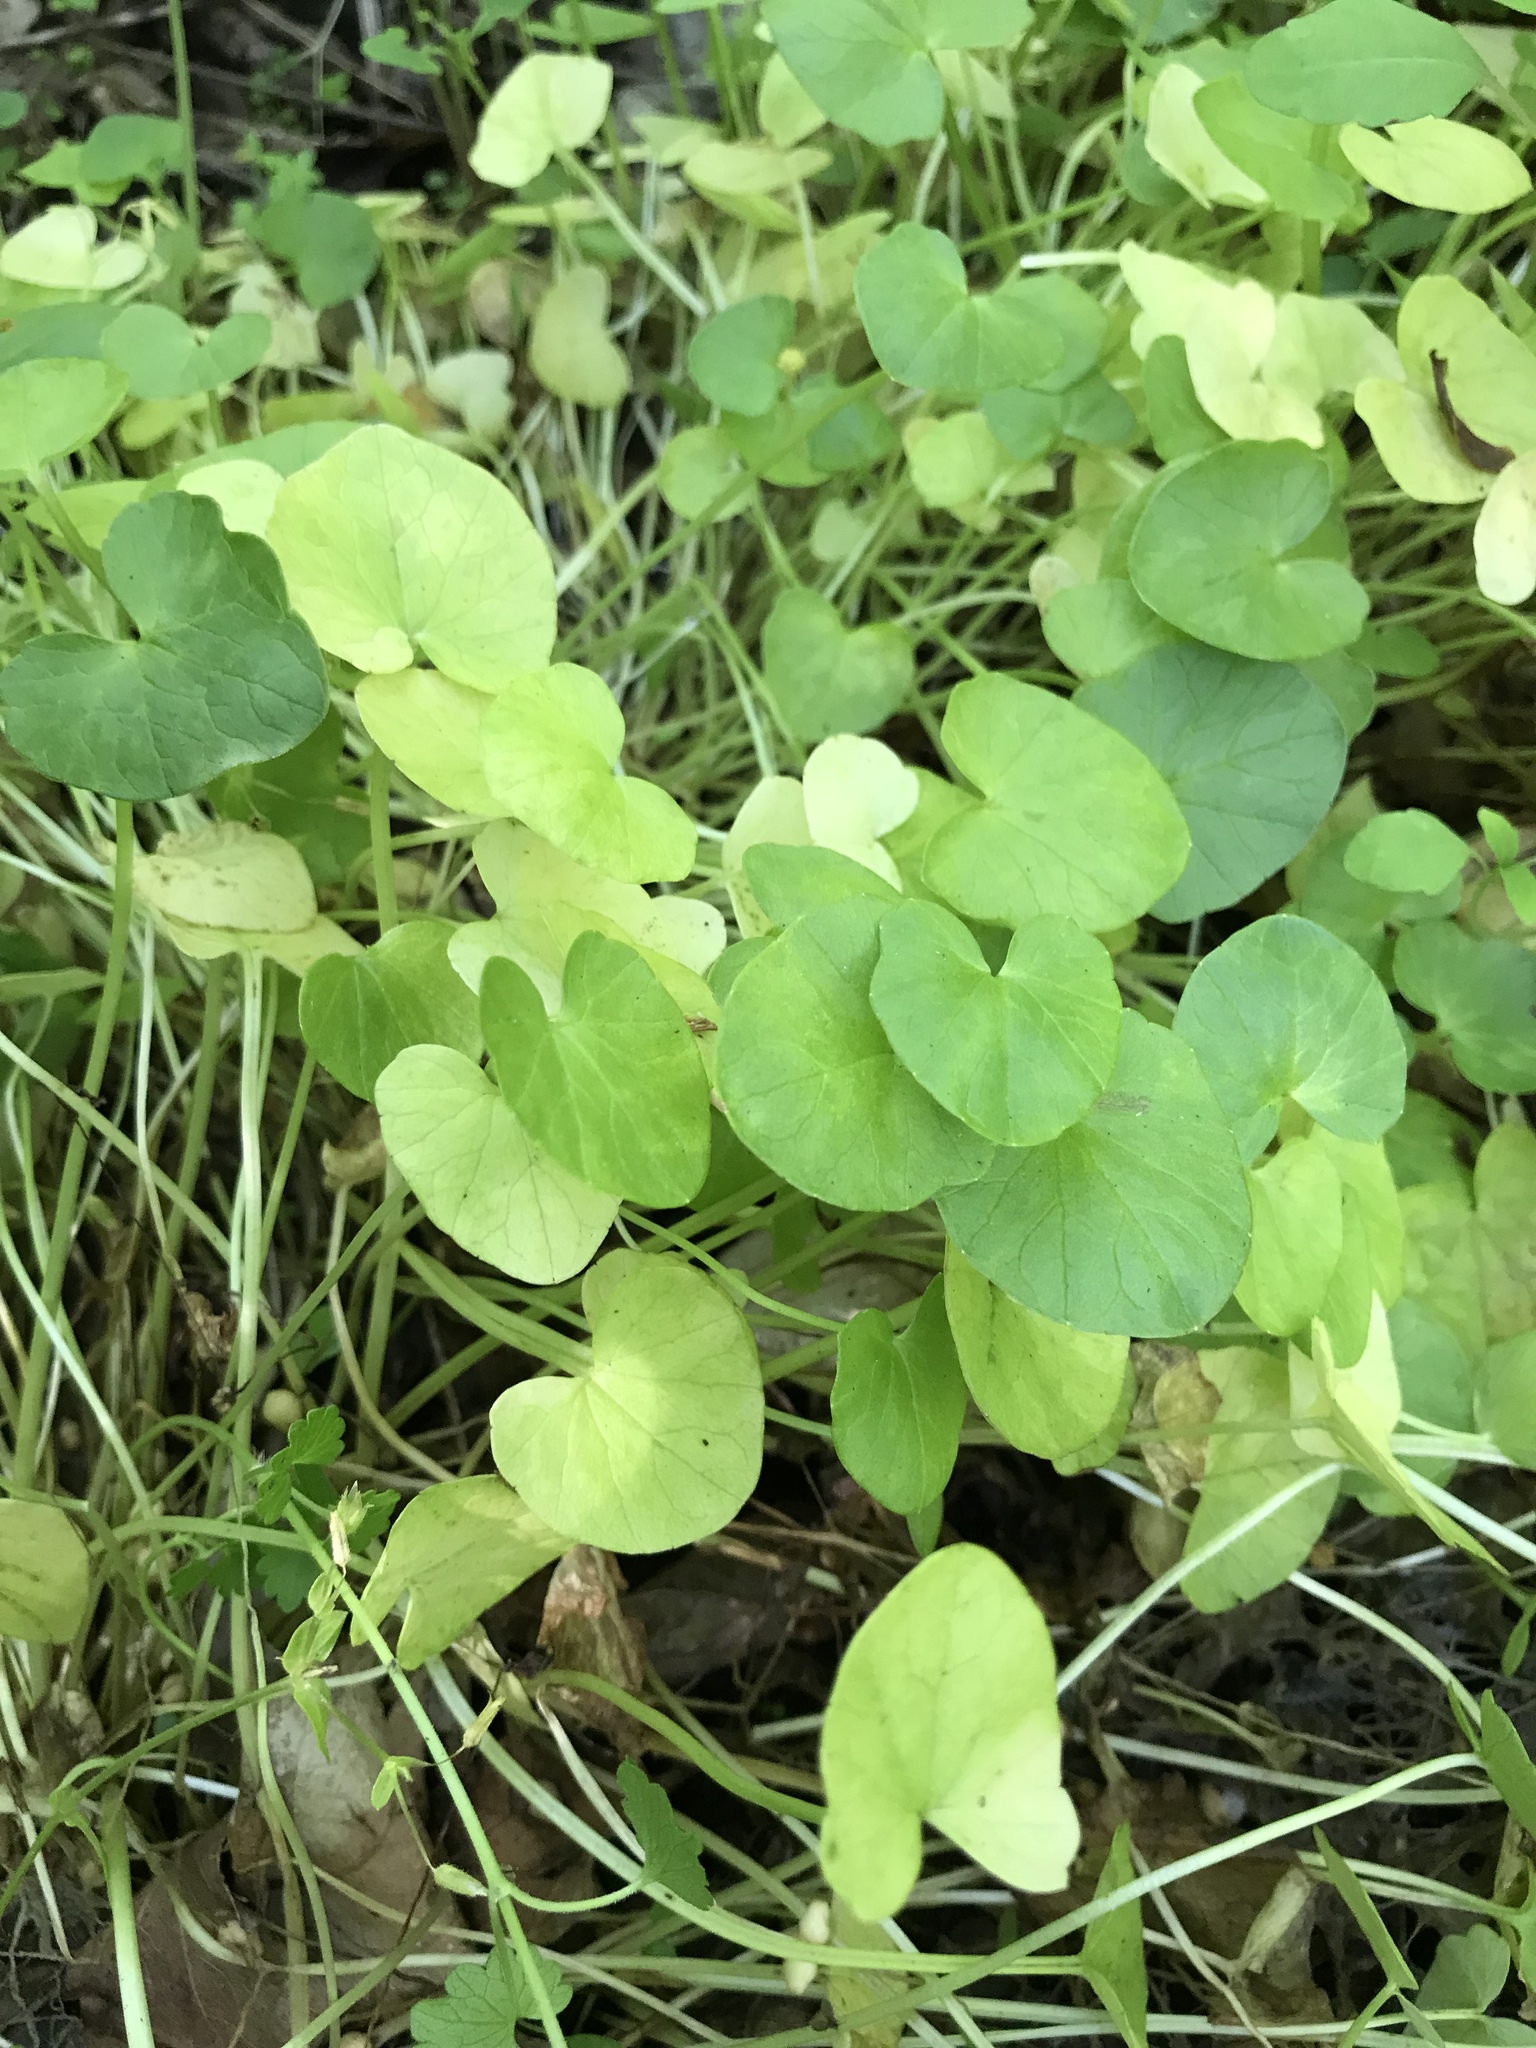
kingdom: Plantae
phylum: Tracheophyta
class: Magnoliopsida
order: Ranunculales
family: Ranunculaceae
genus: Ficaria
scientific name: Ficaria verna
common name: Lesser celandine
